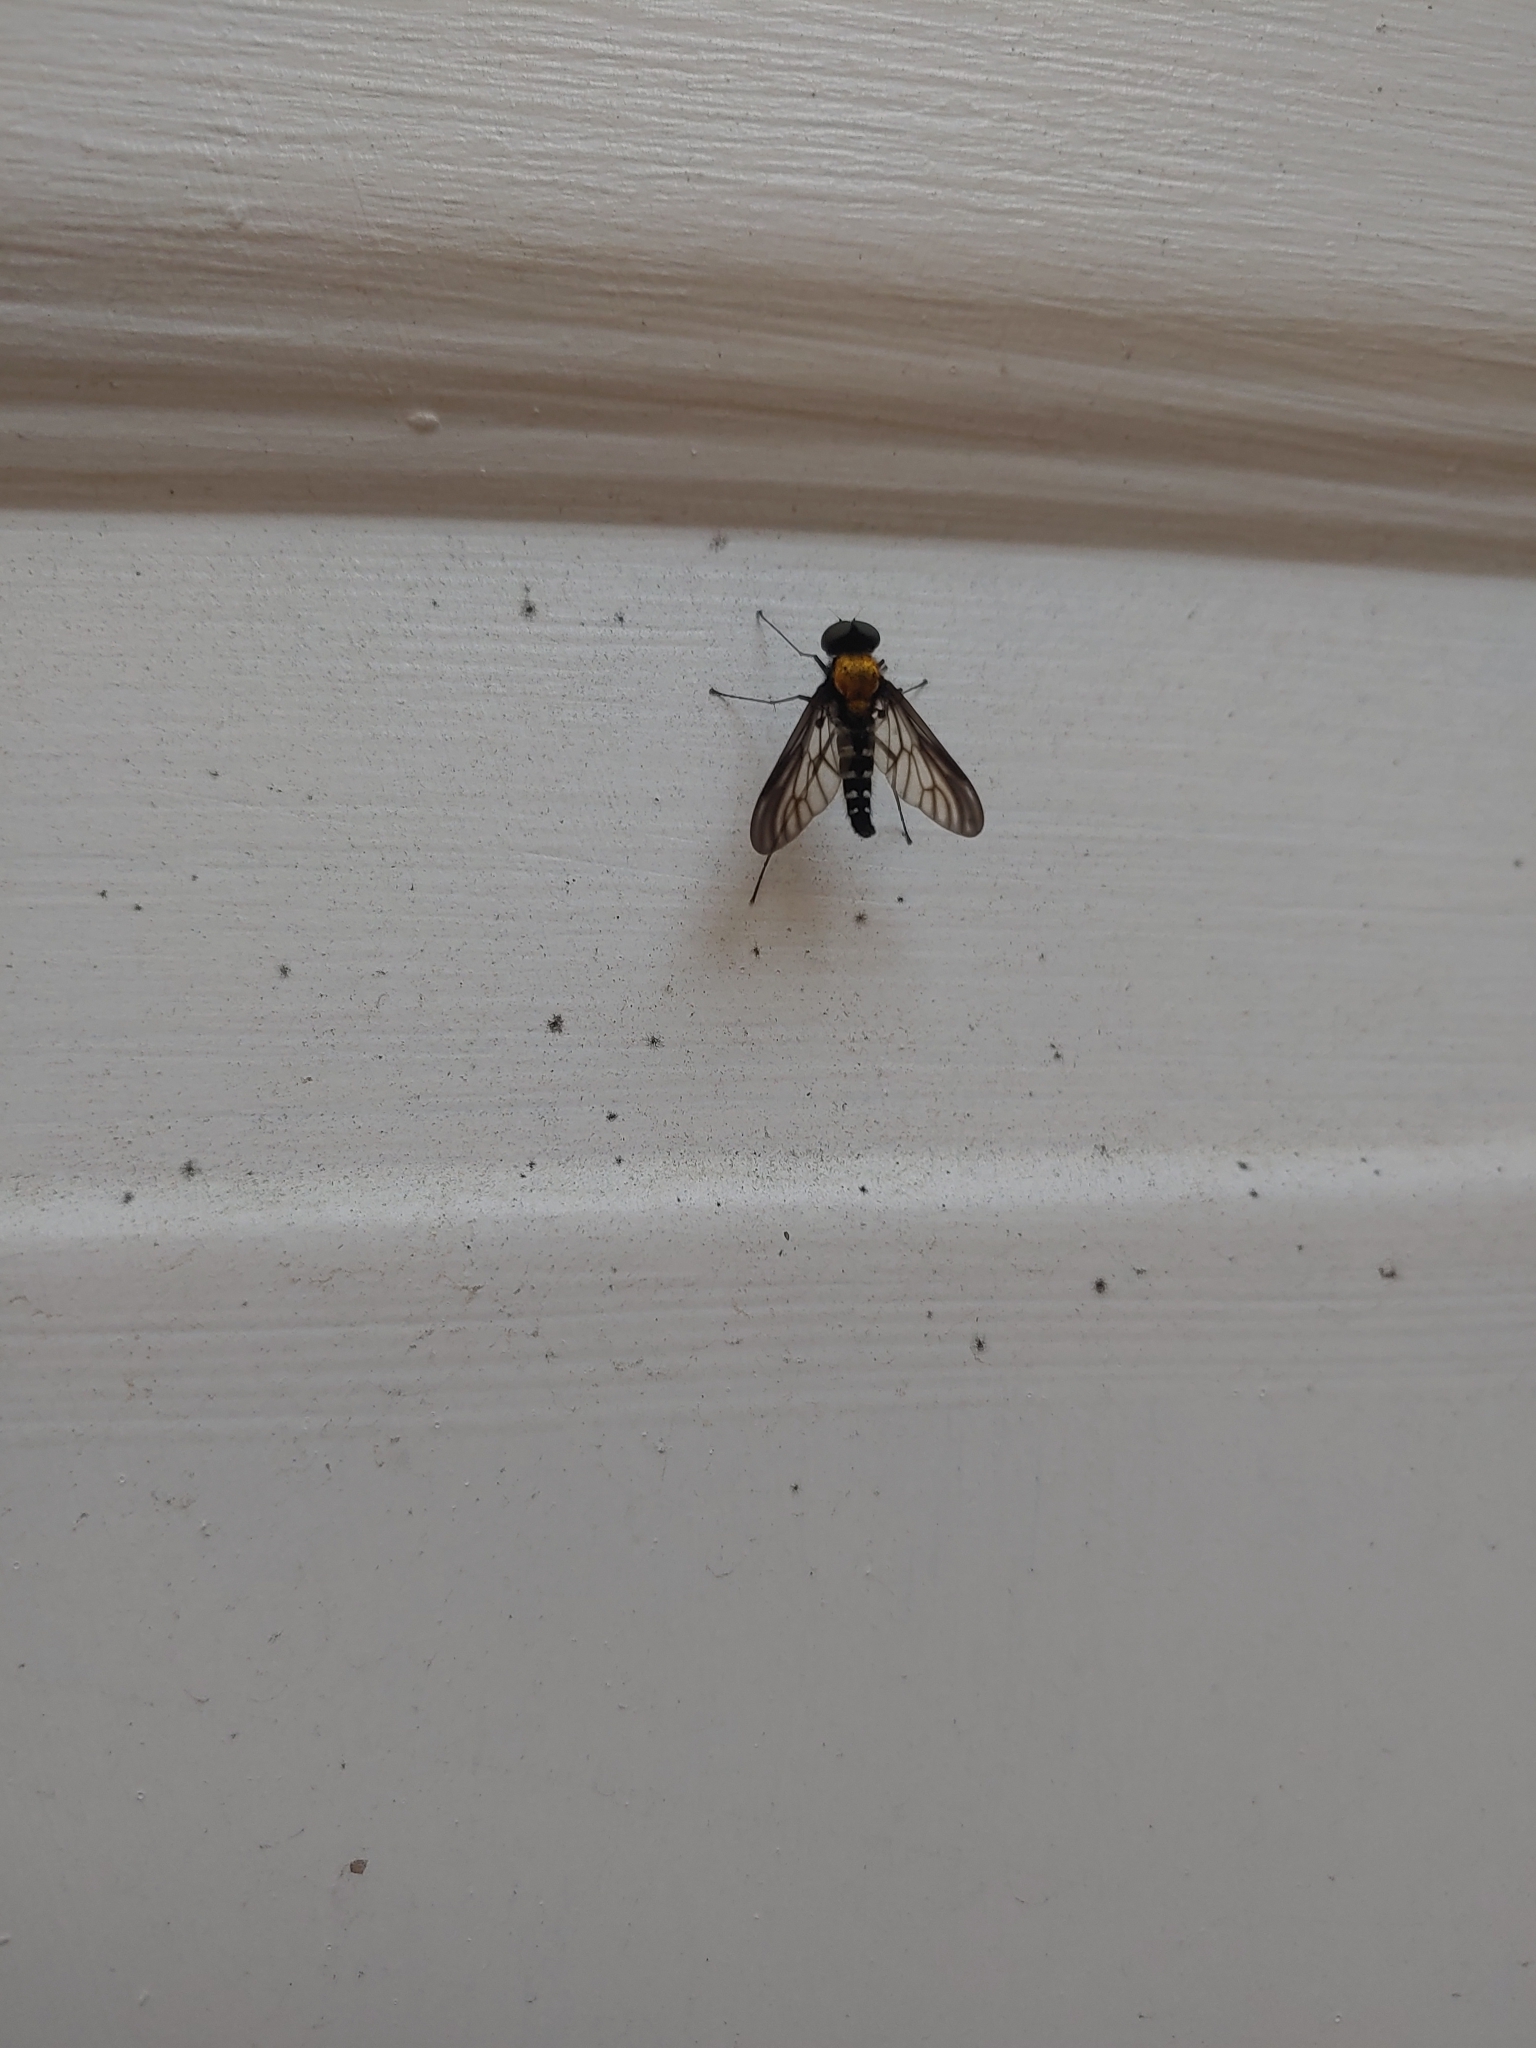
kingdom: Animalia
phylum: Arthropoda
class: Insecta
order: Diptera
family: Rhagionidae
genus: Chrysopilus
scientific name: Chrysopilus thoracicus
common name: Golden-backed snipe fly
